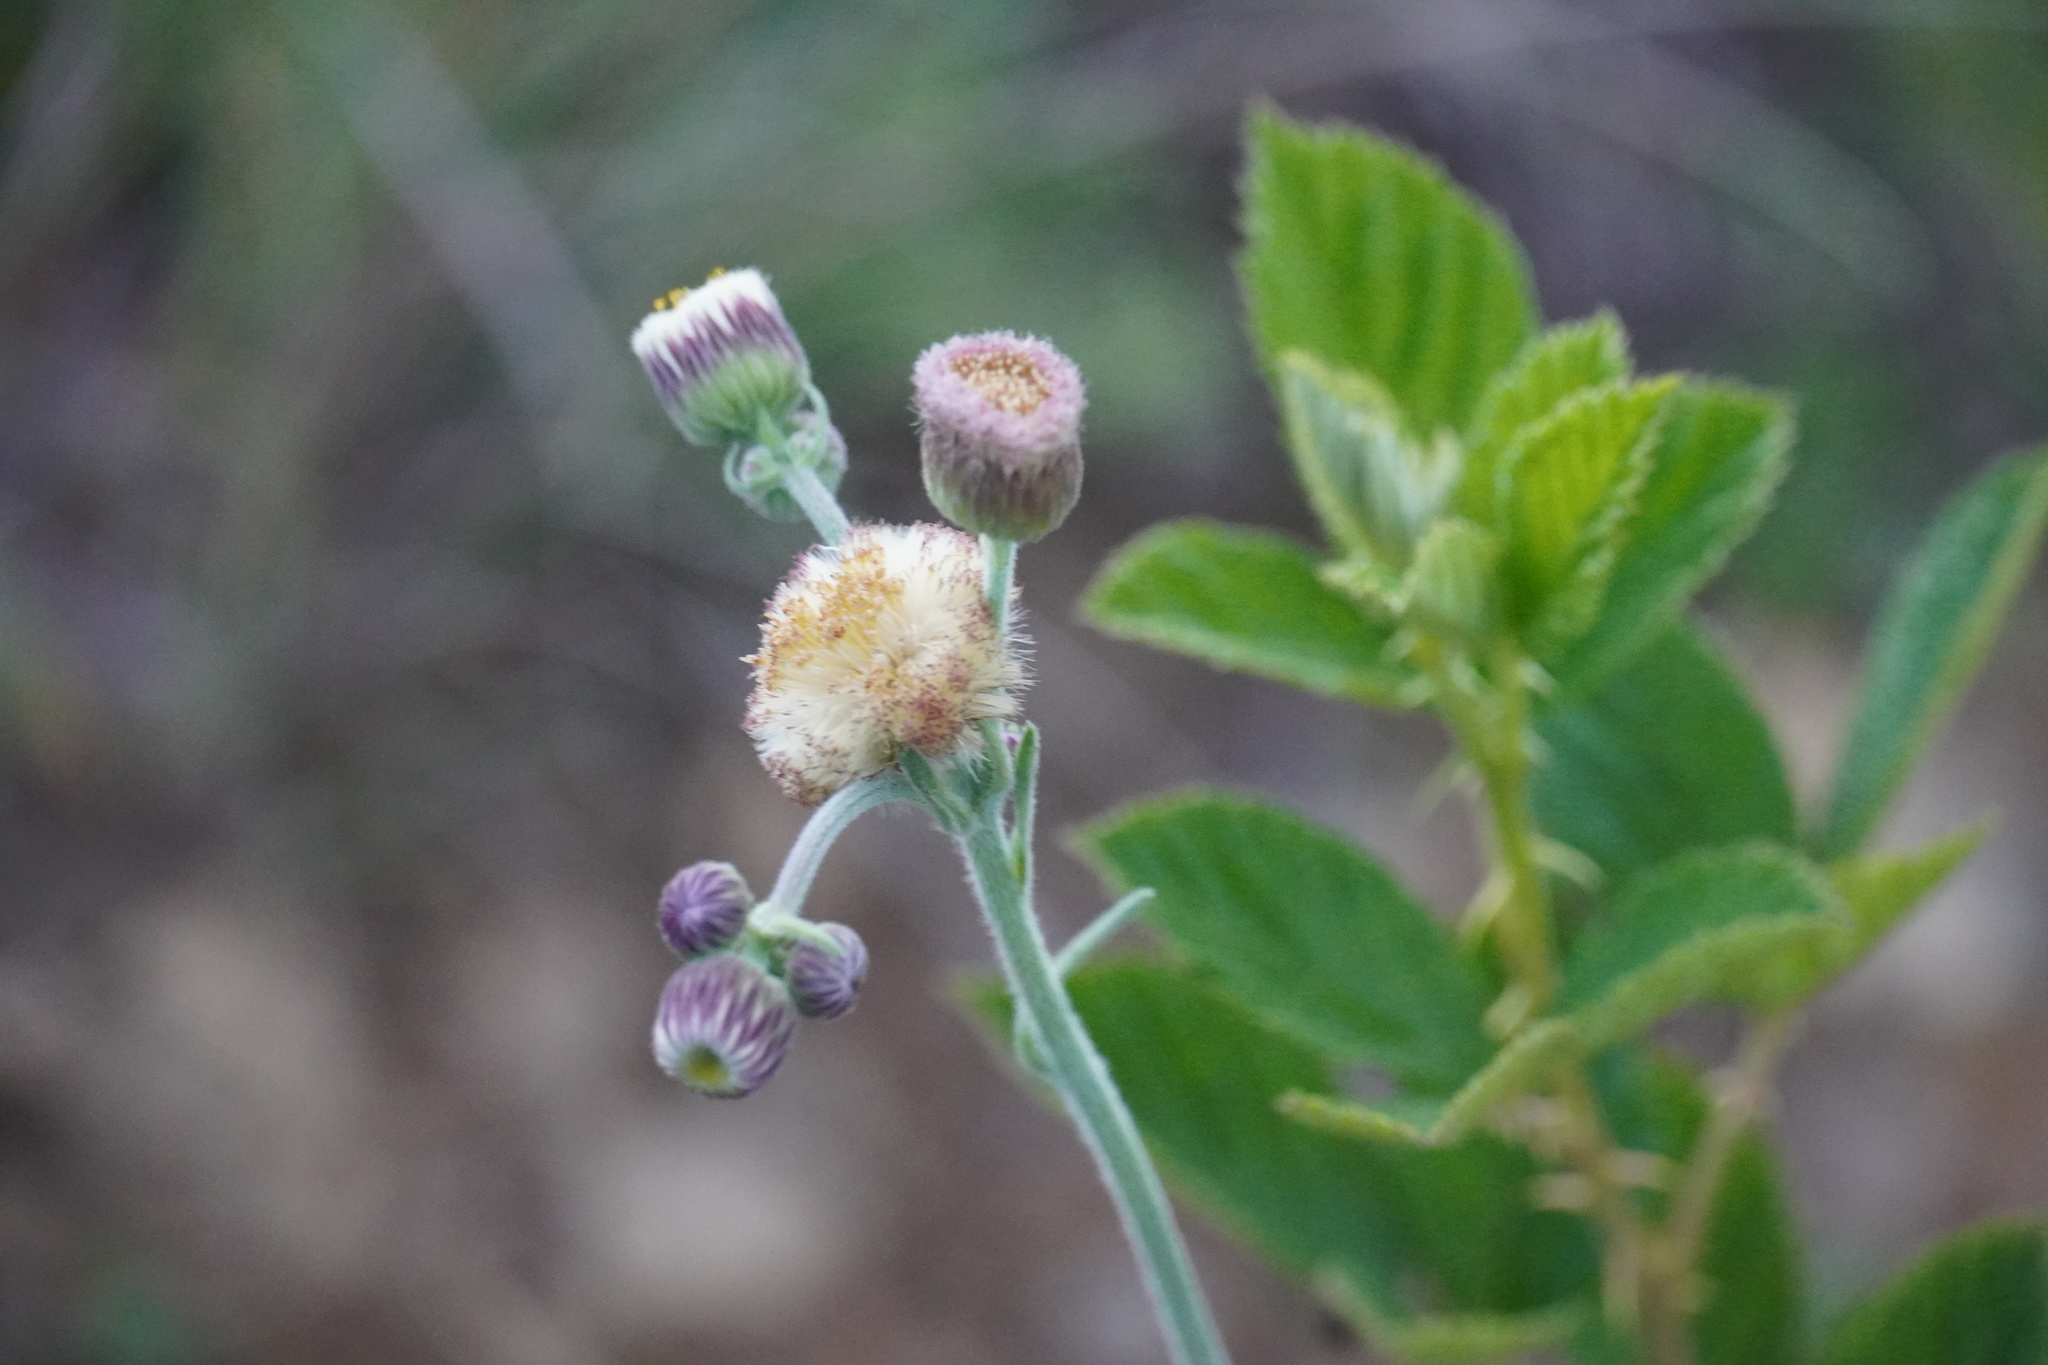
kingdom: Plantae
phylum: Tracheophyta
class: Magnoliopsida
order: Asterales
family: Asteraceae
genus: Erigeron
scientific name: Erigeron primulifolius
